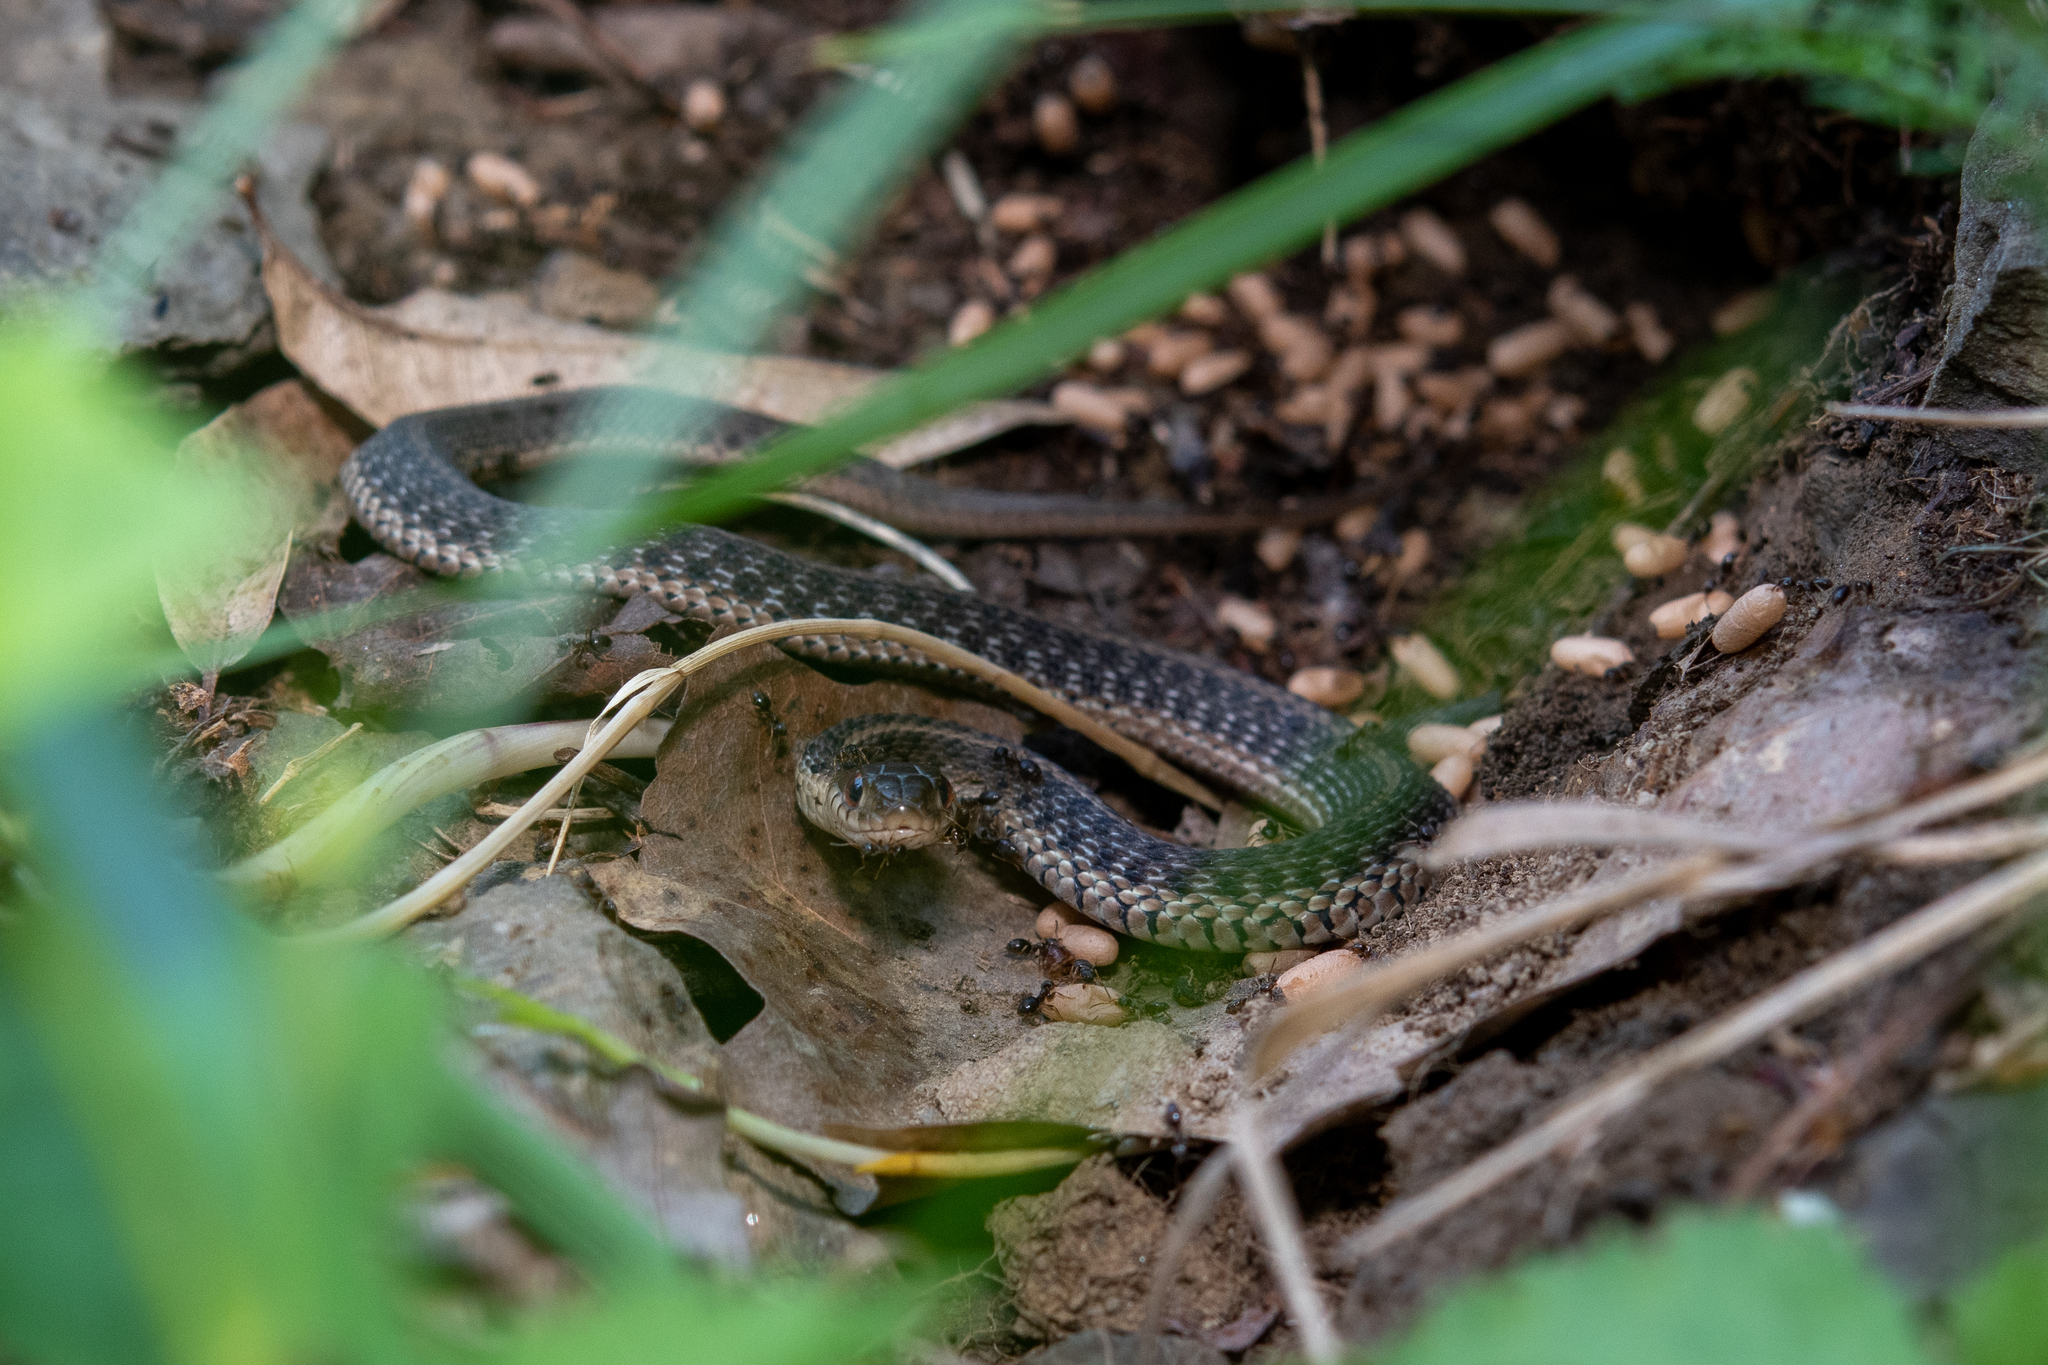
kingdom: Animalia
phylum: Chordata
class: Squamata
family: Colubridae
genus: Thamnophis
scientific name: Thamnophis sirtalis
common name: Common garter snake
